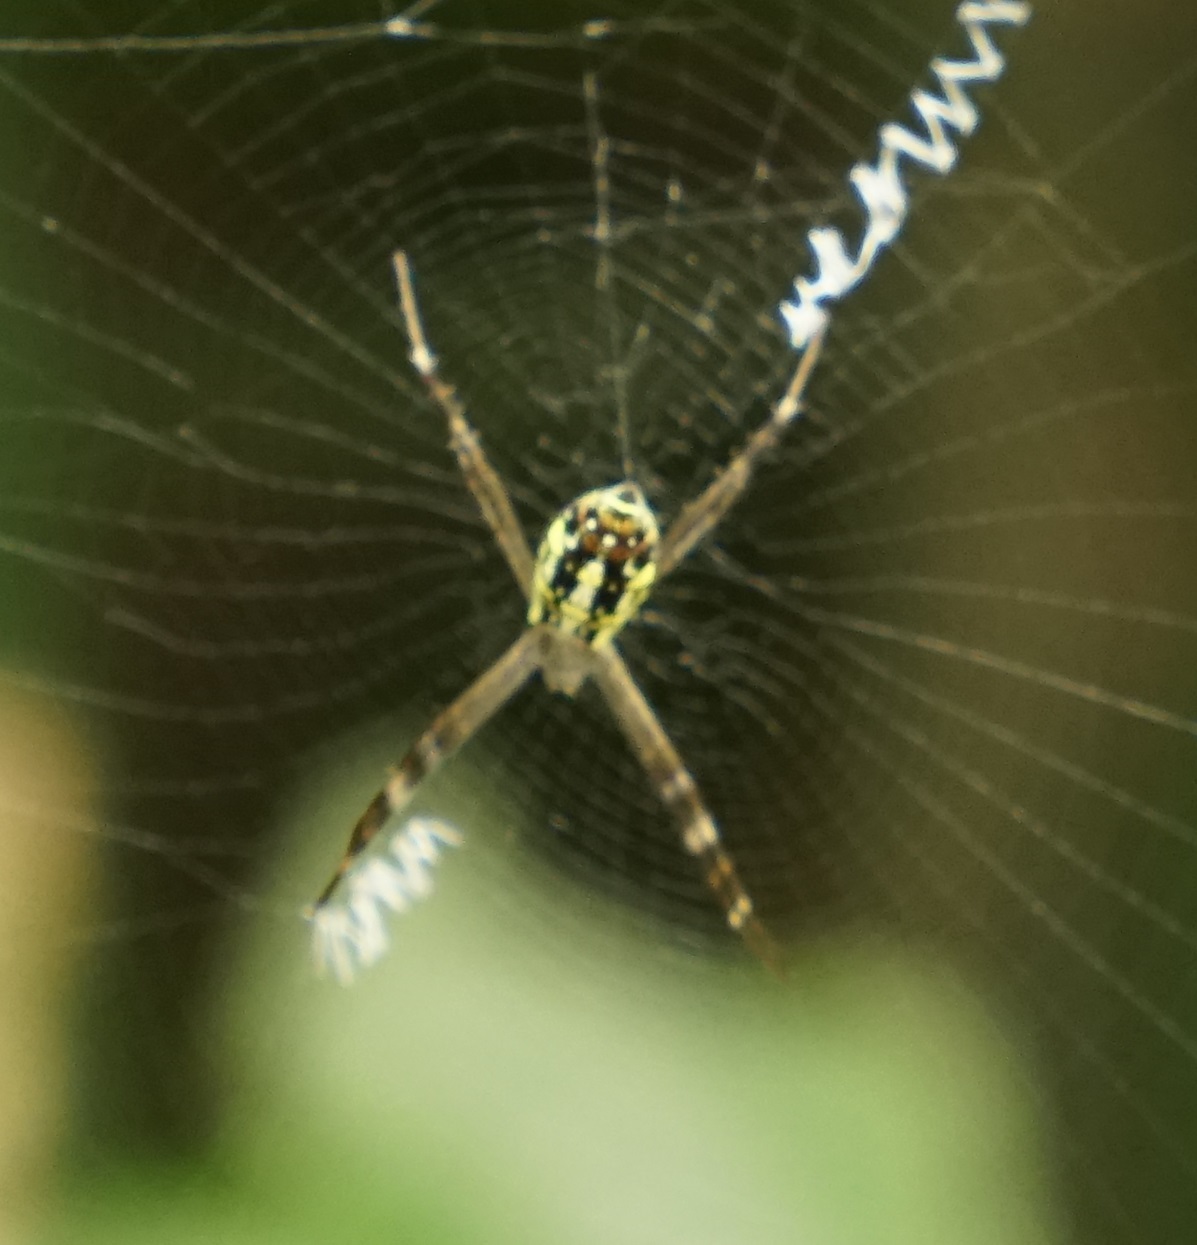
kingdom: Animalia
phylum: Arthropoda
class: Arachnida
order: Araneae
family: Araneidae
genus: Argiope
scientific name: Argiope dang
